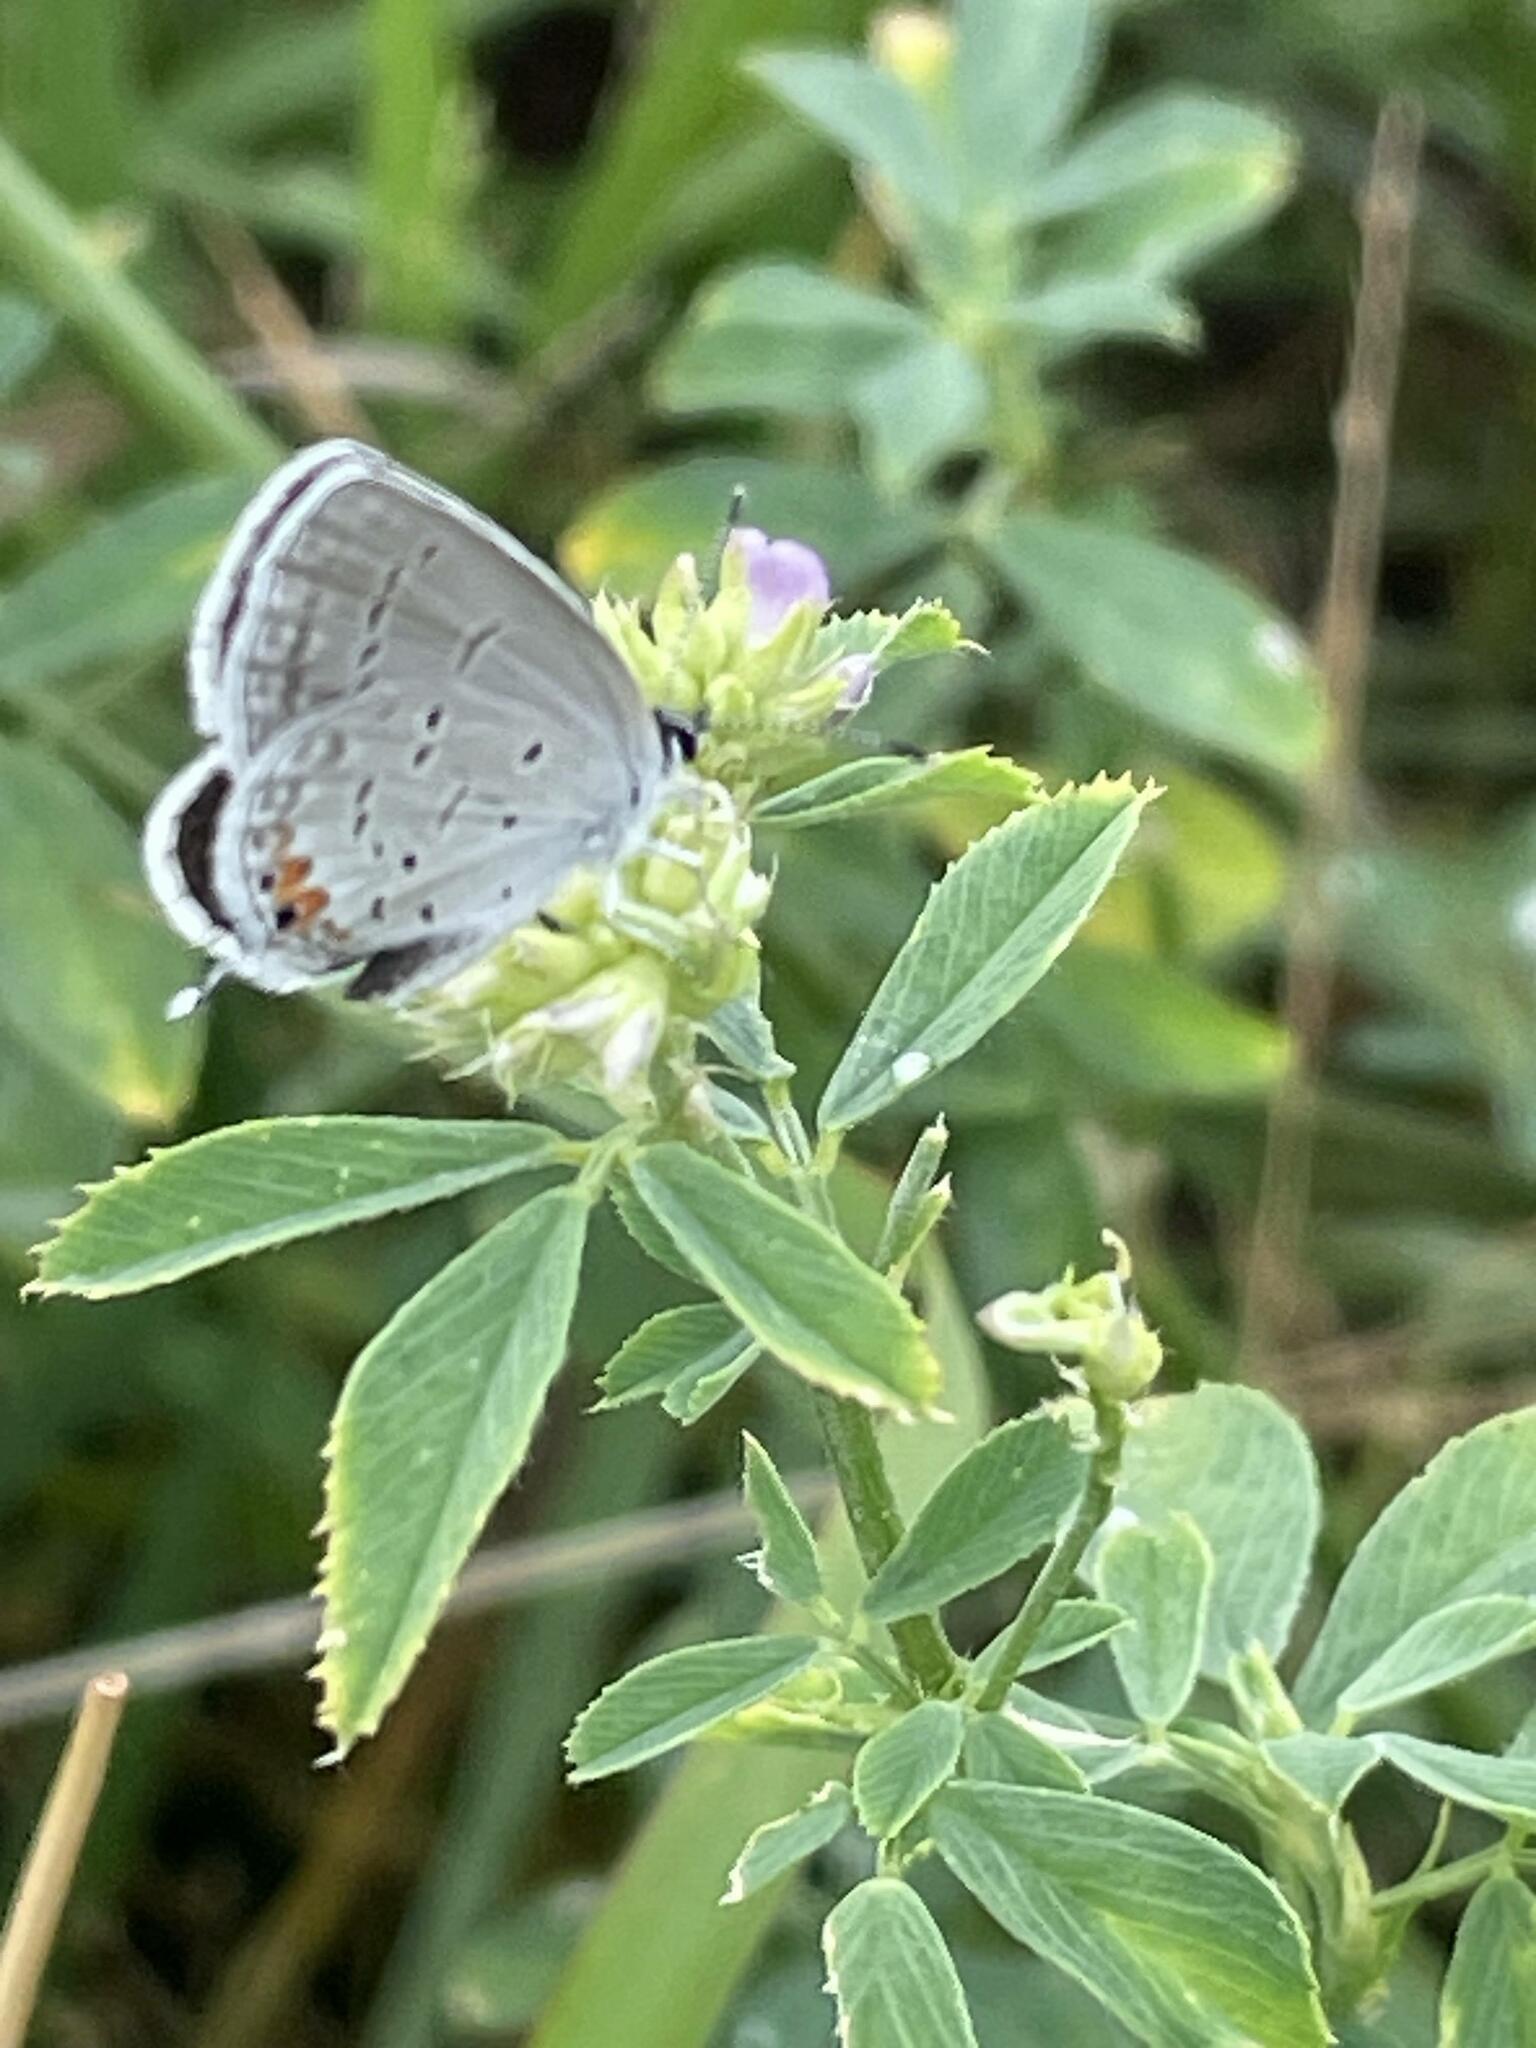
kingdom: Animalia
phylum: Arthropoda
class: Insecta
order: Lepidoptera
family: Lycaenidae
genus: Elkalyce
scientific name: Elkalyce comyntas
